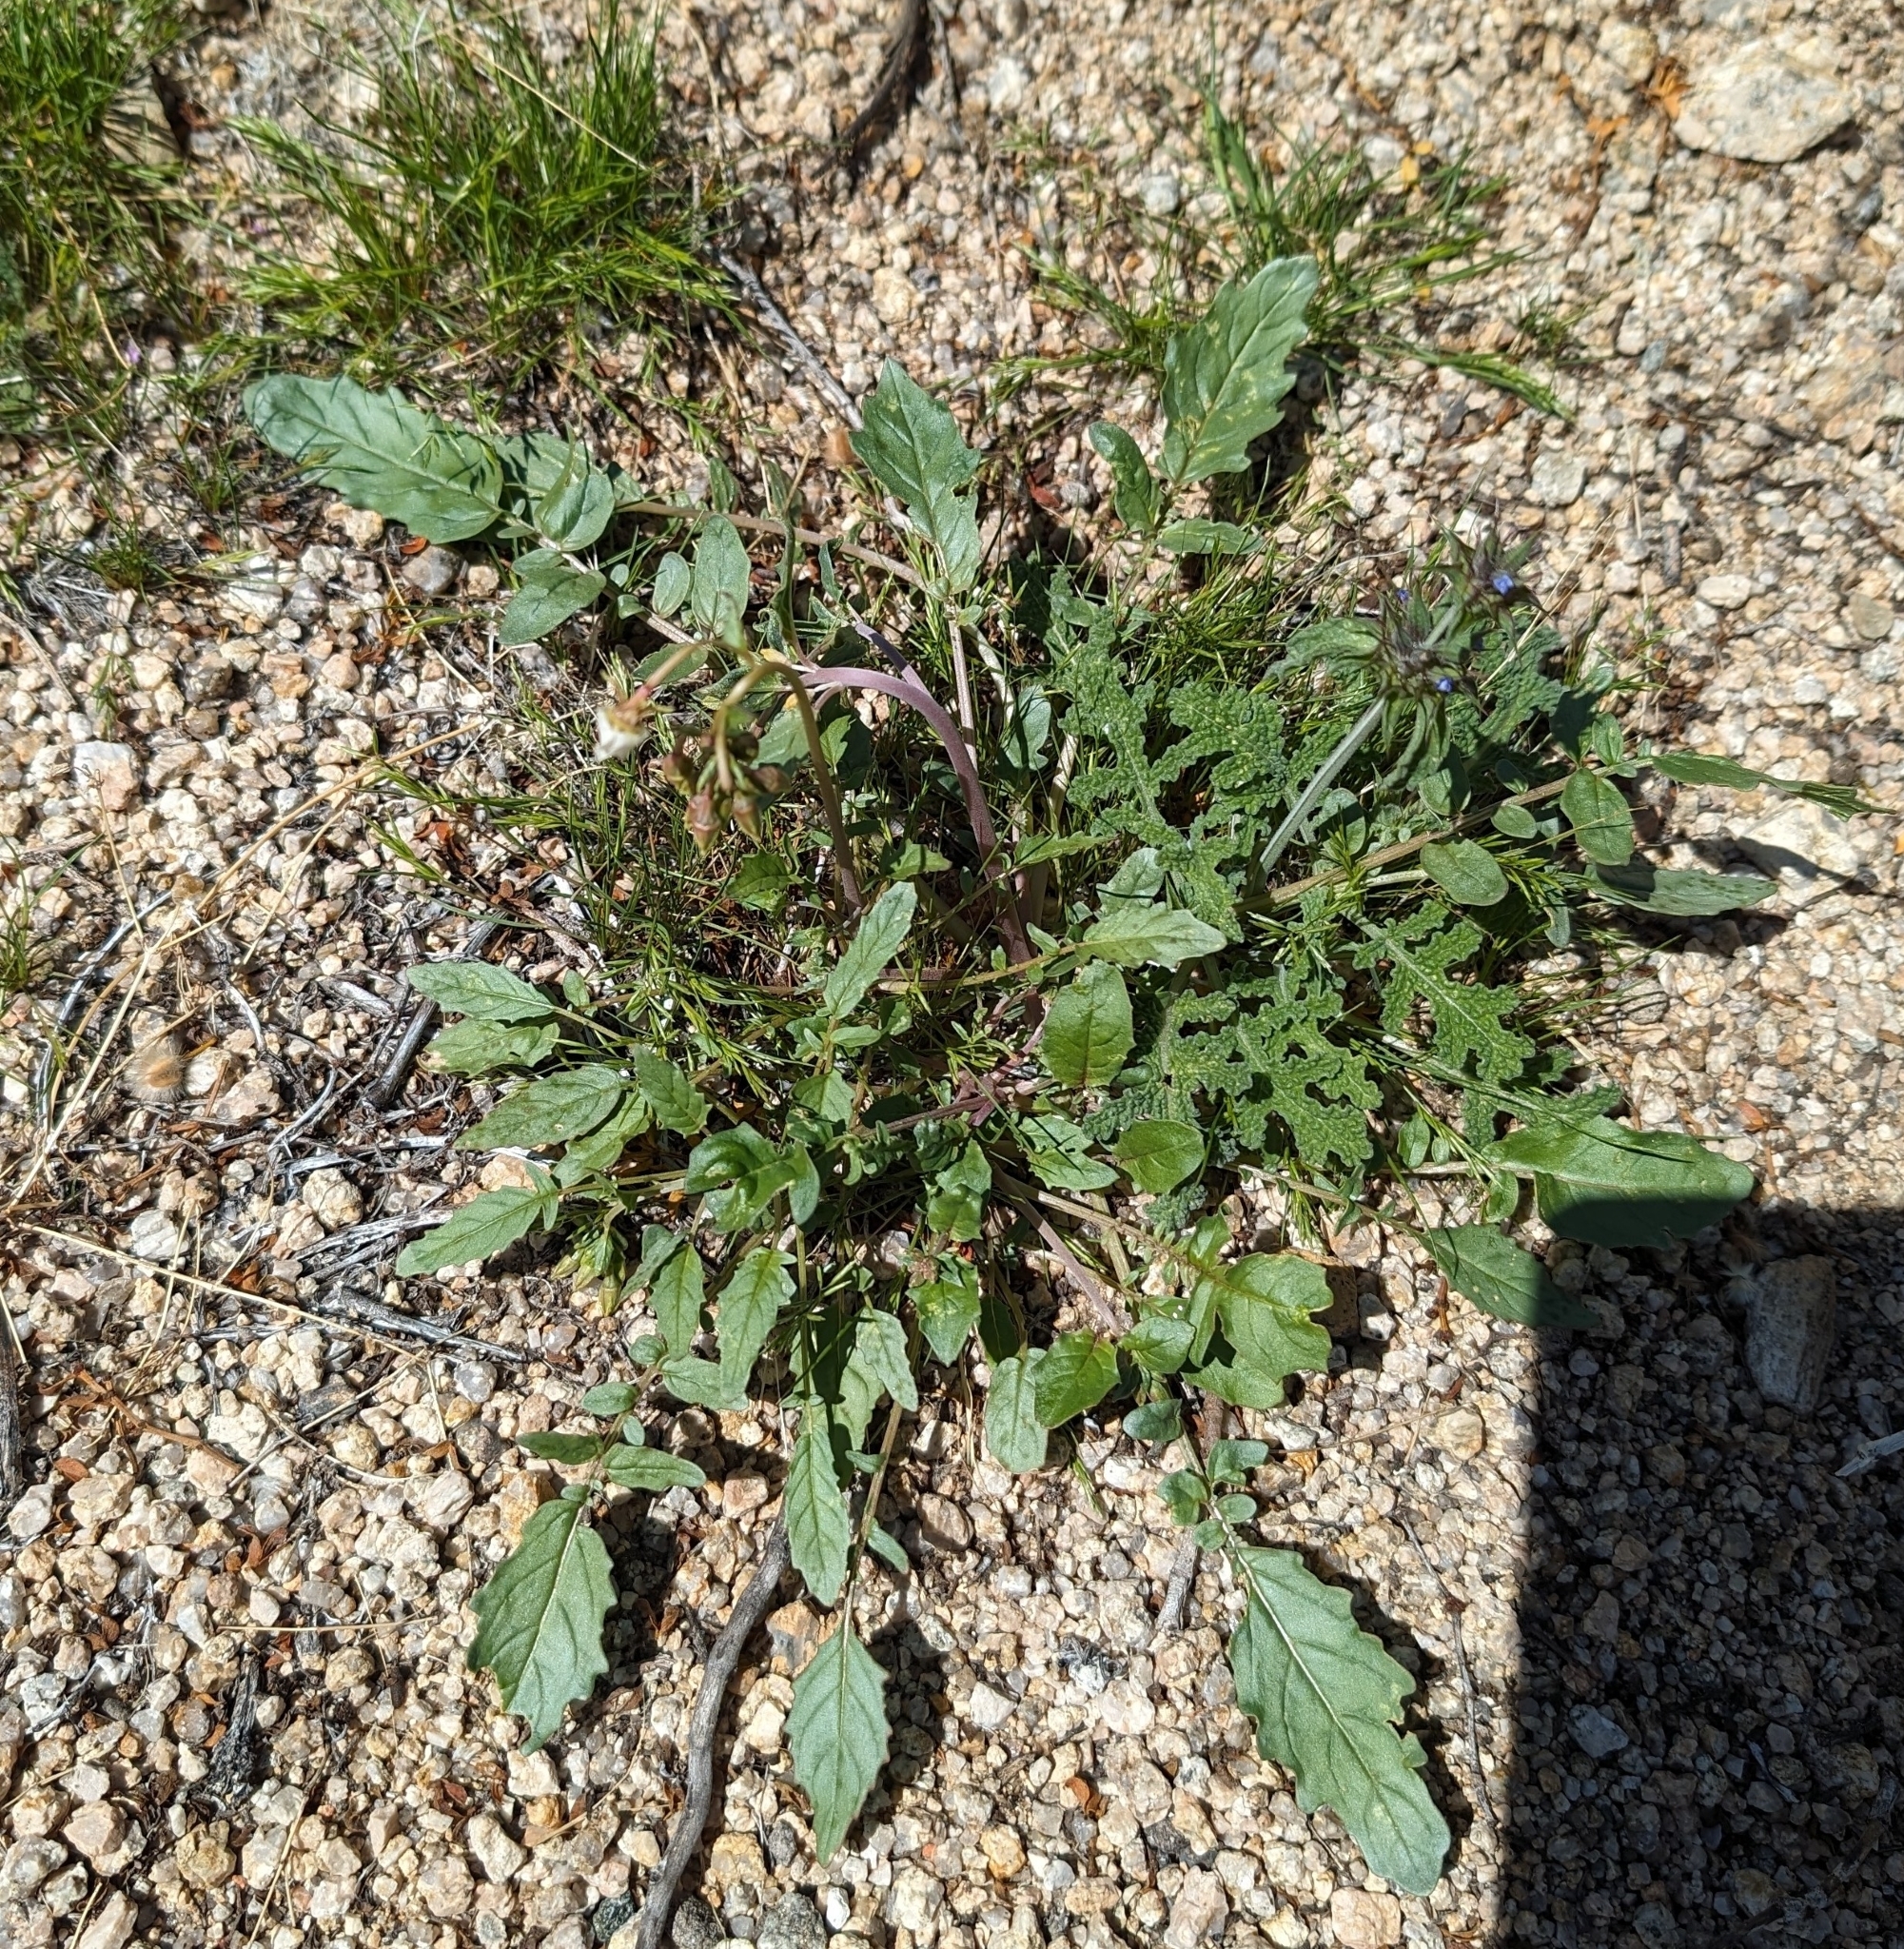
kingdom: Plantae
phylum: Tracheophyta
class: Magnoliopsida
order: Myrtales
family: Onagraceae
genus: Chylismia
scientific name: Chylismia claviformis
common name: Browneyes
